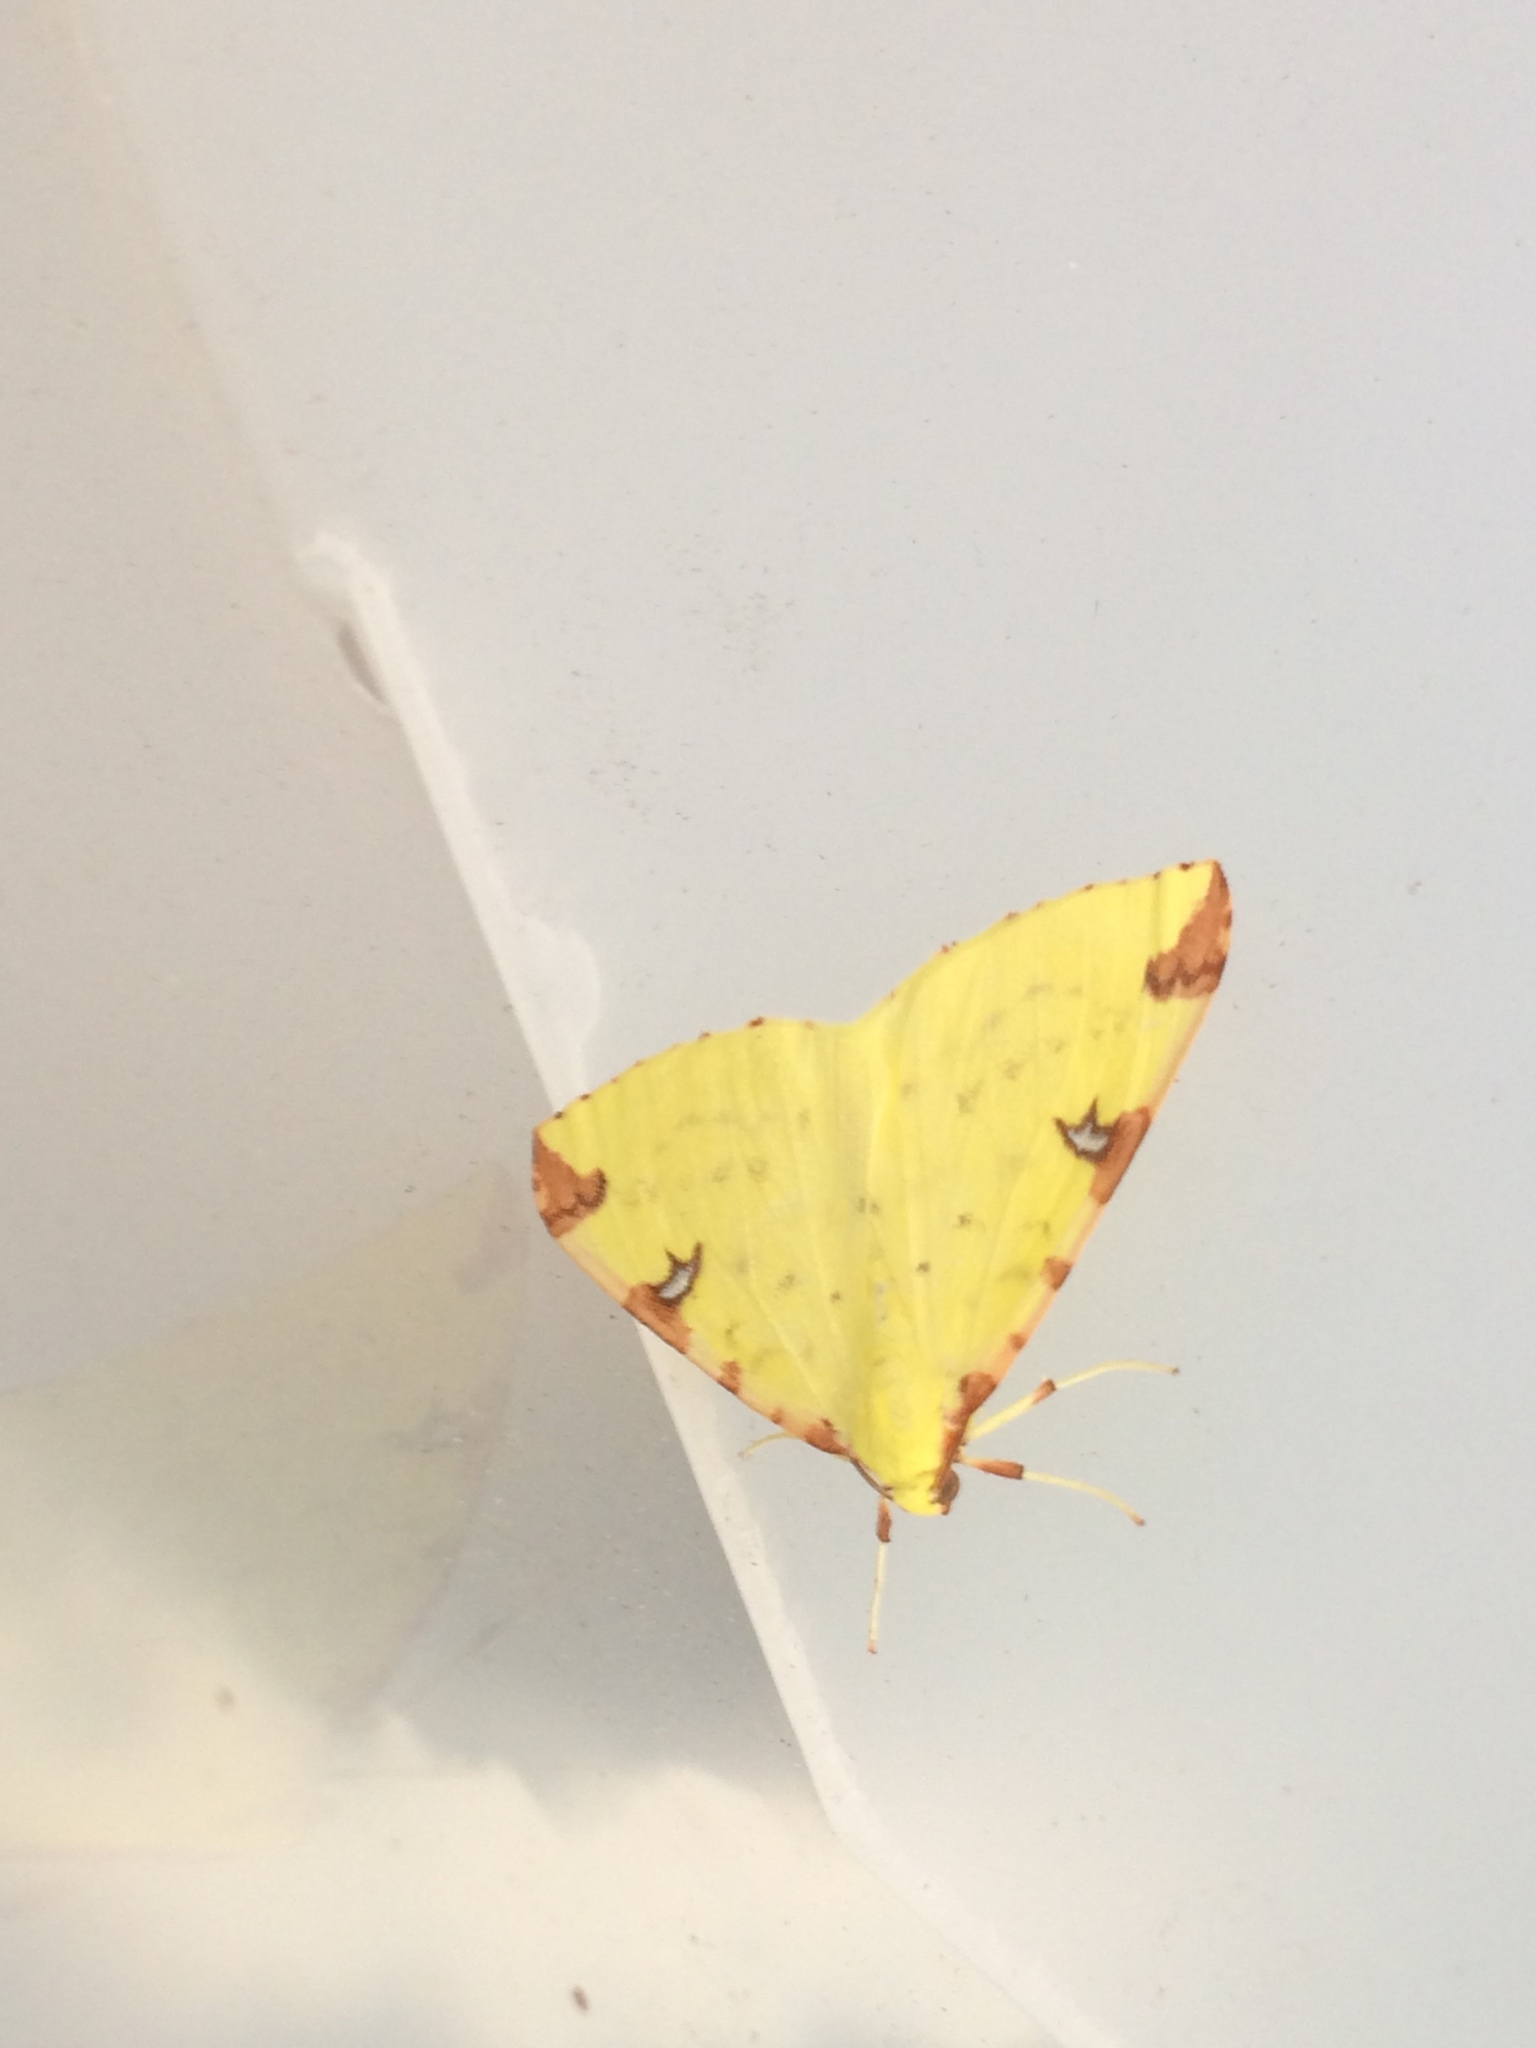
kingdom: Animalia
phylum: Arthropoda
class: Insecta
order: Lepidoptera
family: Geometridae
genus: Opisthograptis
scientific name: Opisthograptis luteolata
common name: Brimstone moth
